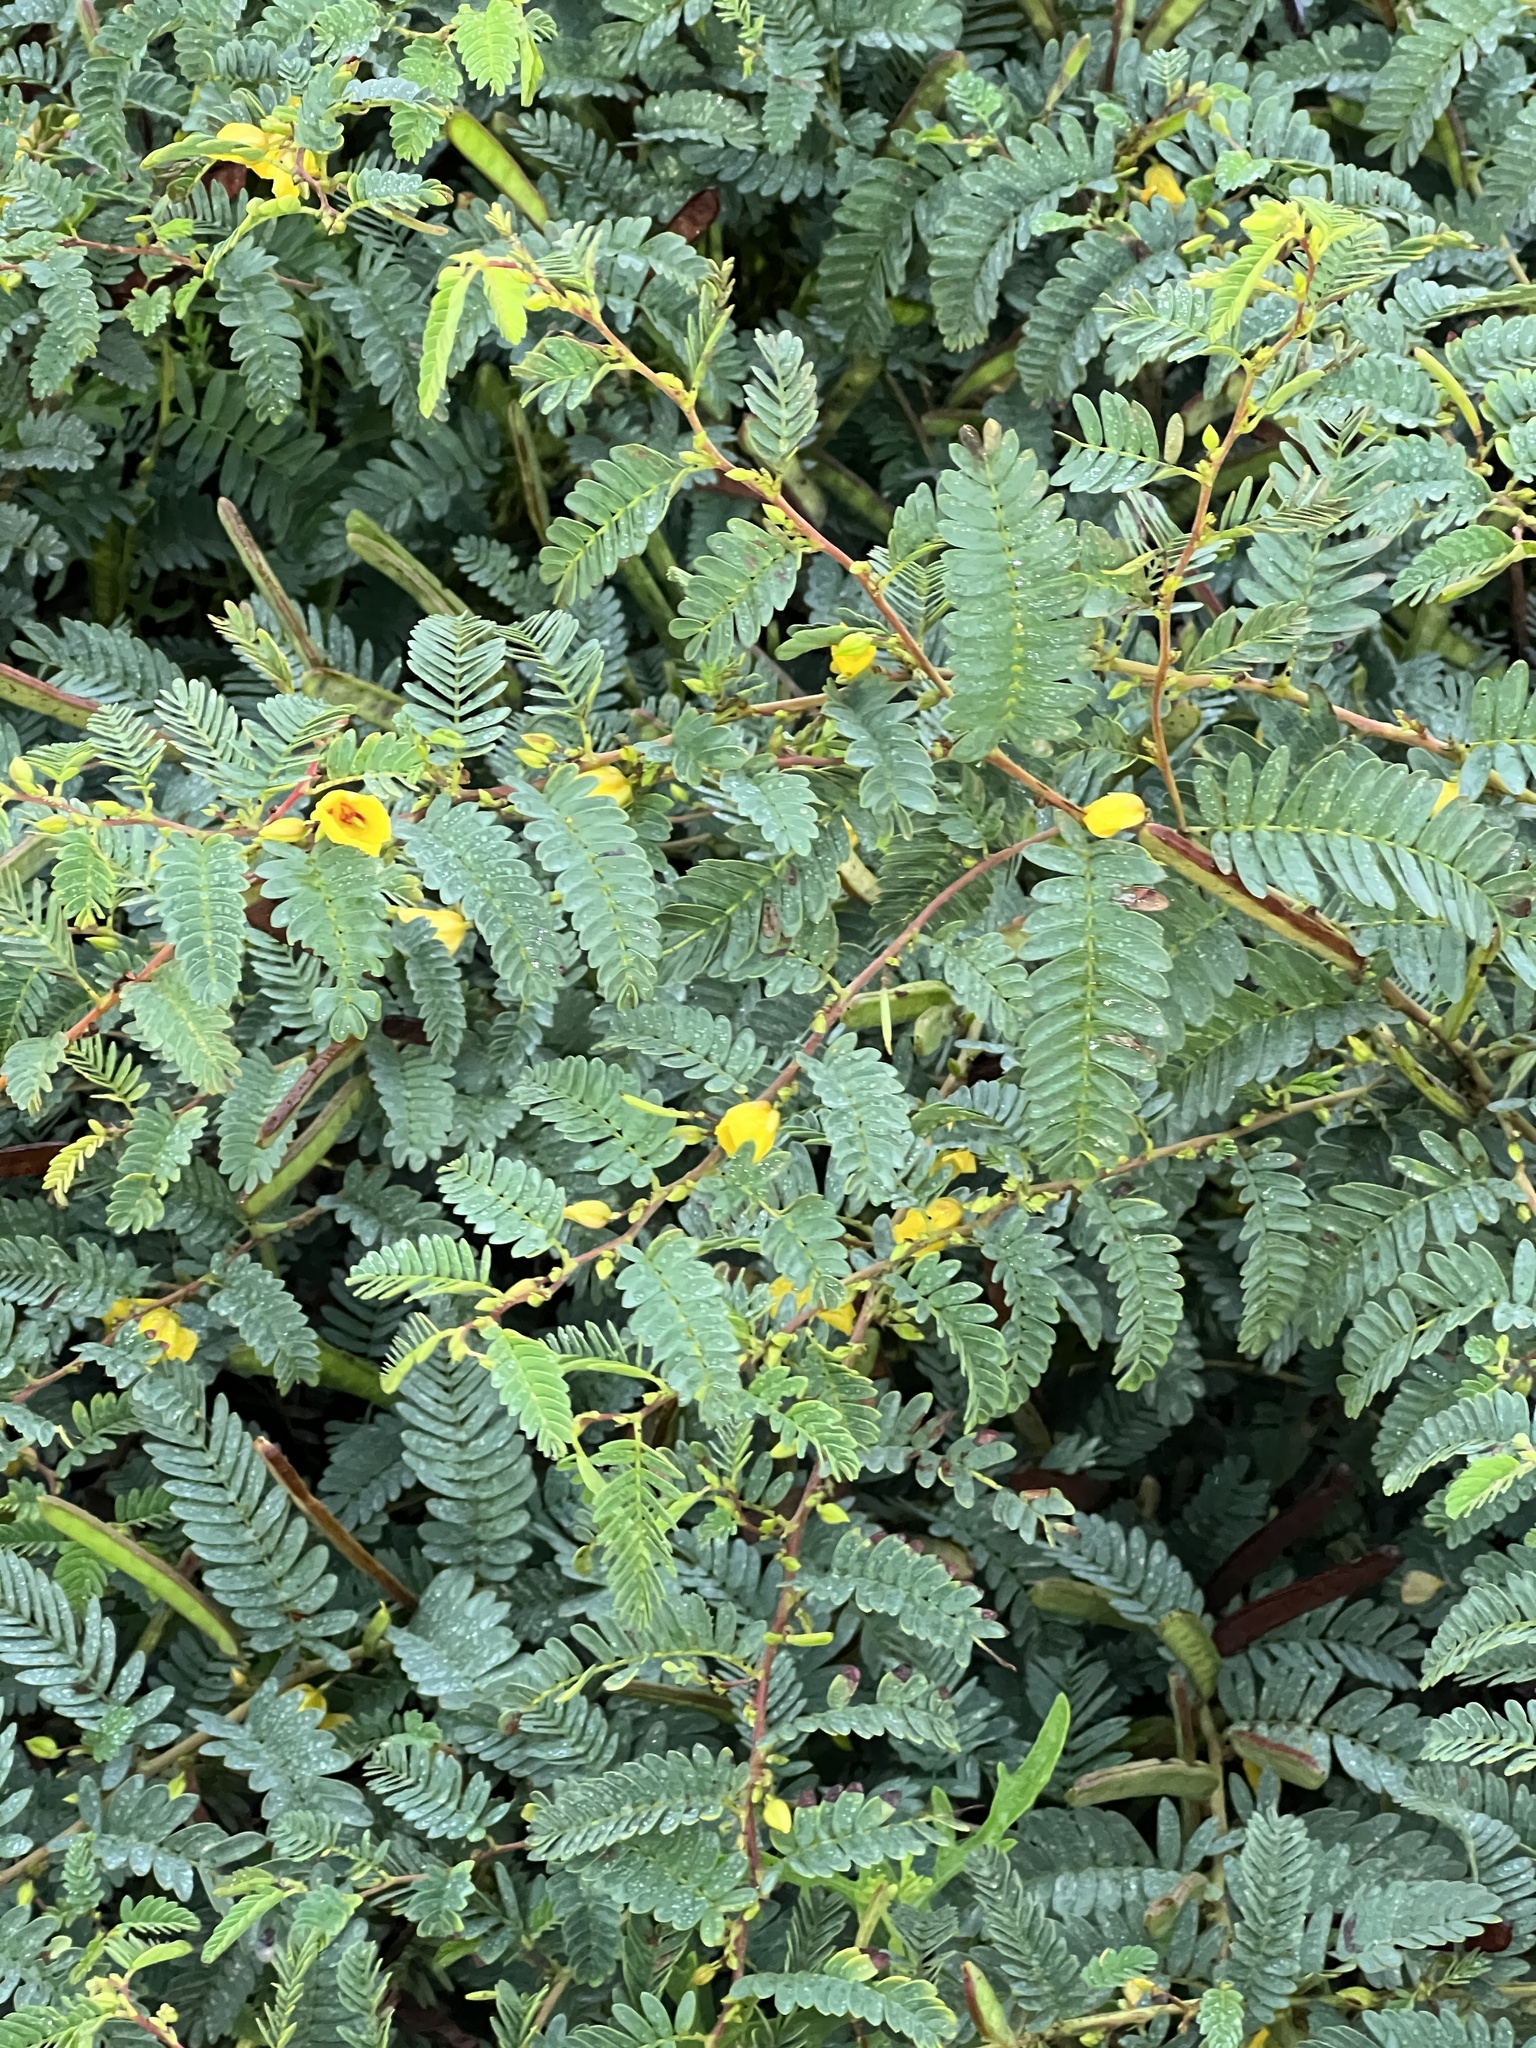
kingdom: Plantae
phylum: Tracheophyta
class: Magnoliopsida
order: Fabales
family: Fabaceae
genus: Chamaecrista
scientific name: Chamaecrista fasciculata
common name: Golden cassia
